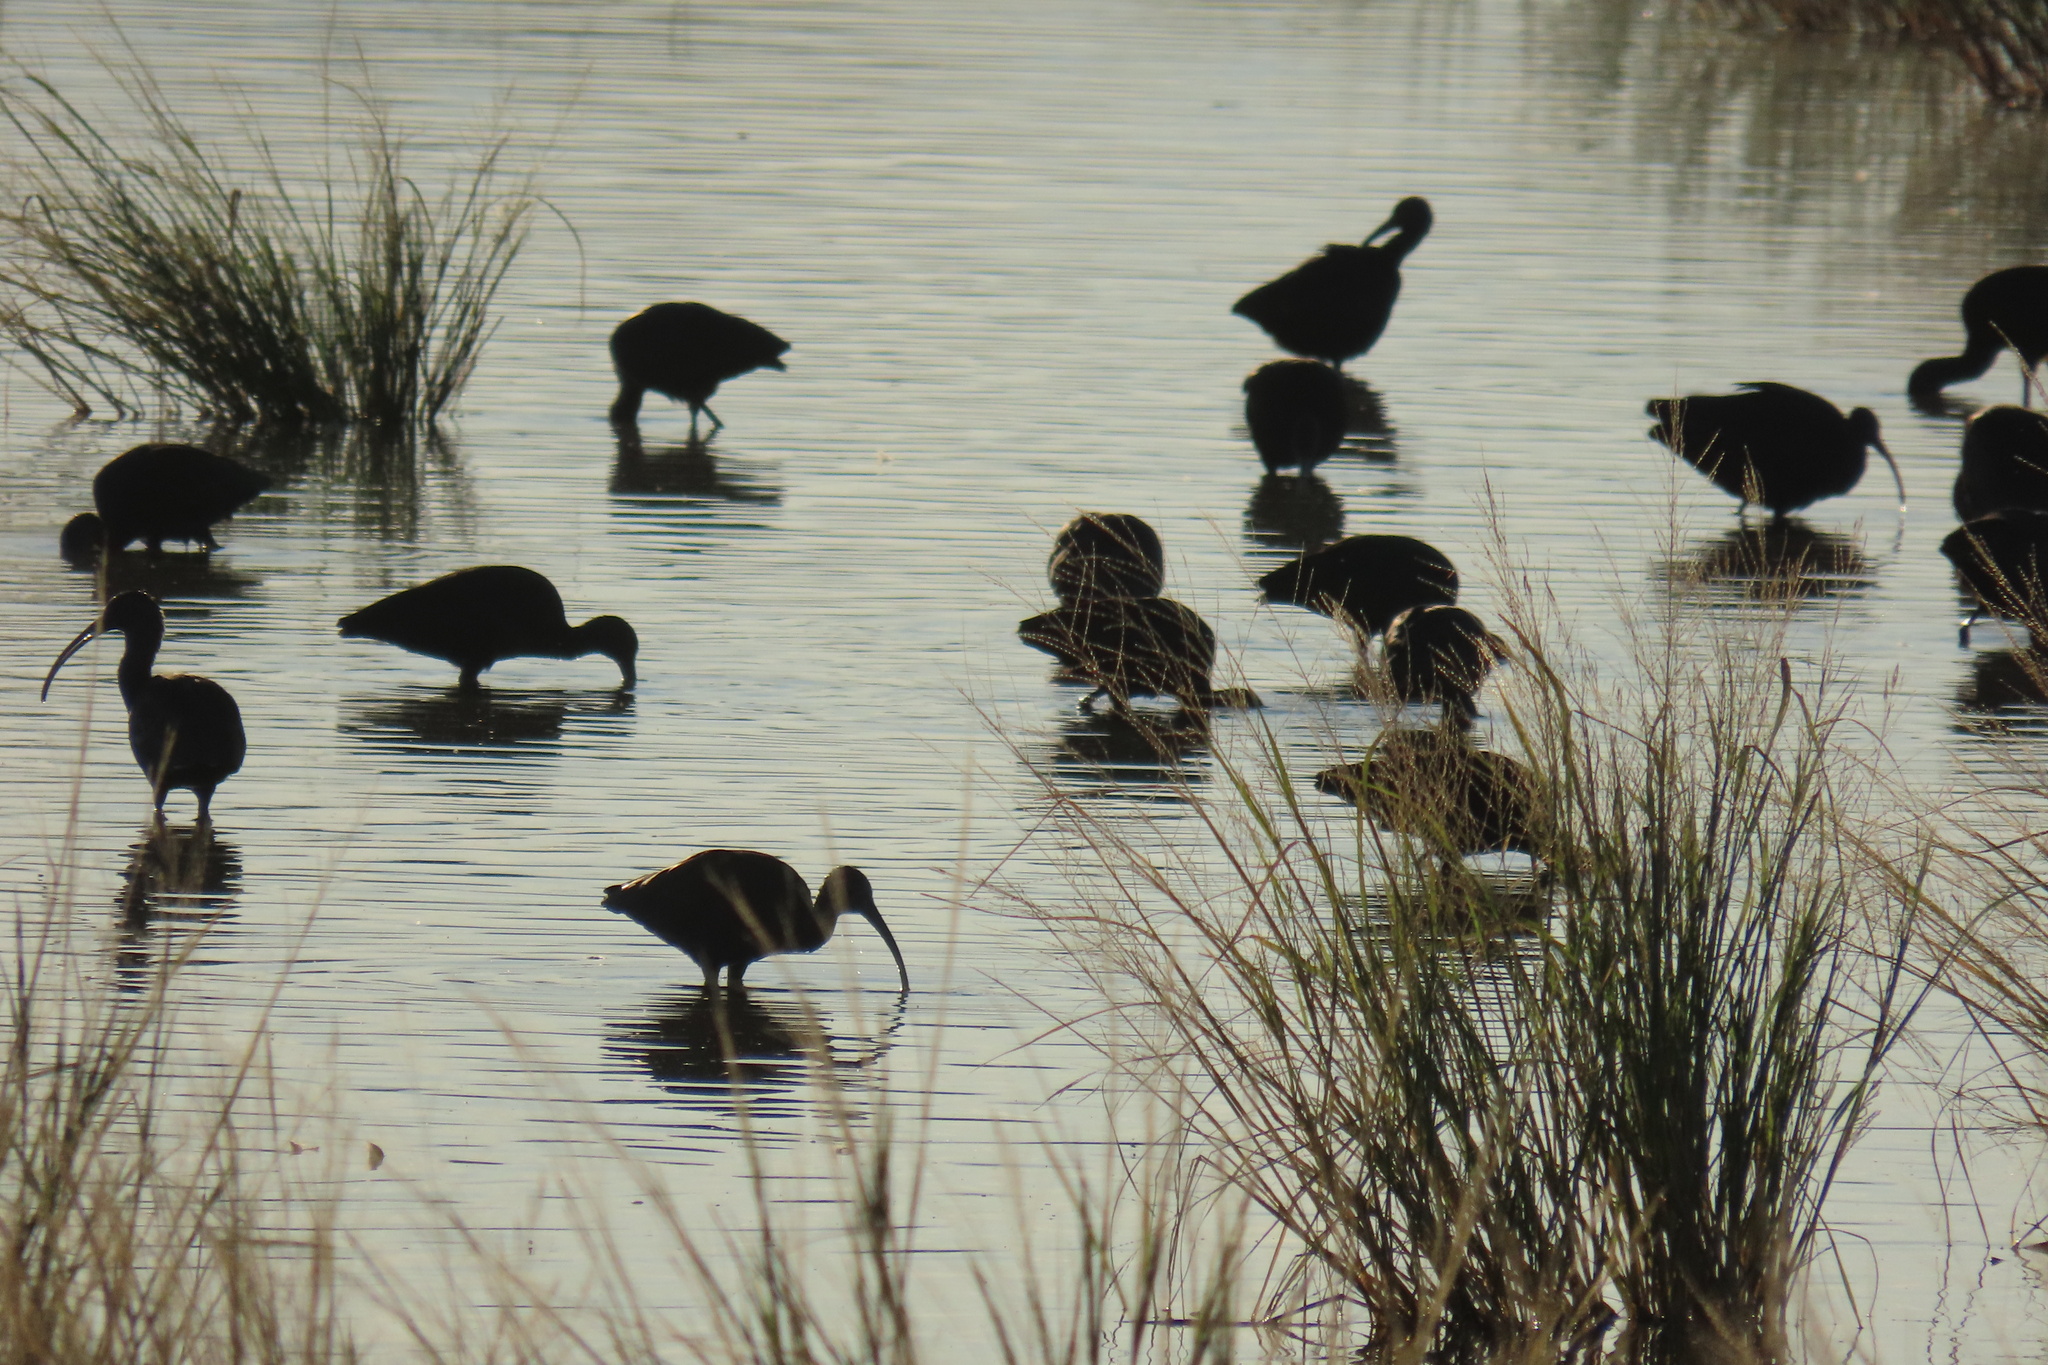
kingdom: Animalia
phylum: Chordata
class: Aves
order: Pelecaniformes
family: Threskiornithidae
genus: Plegadis
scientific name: Plegadis chihi
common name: White-faced ibis
